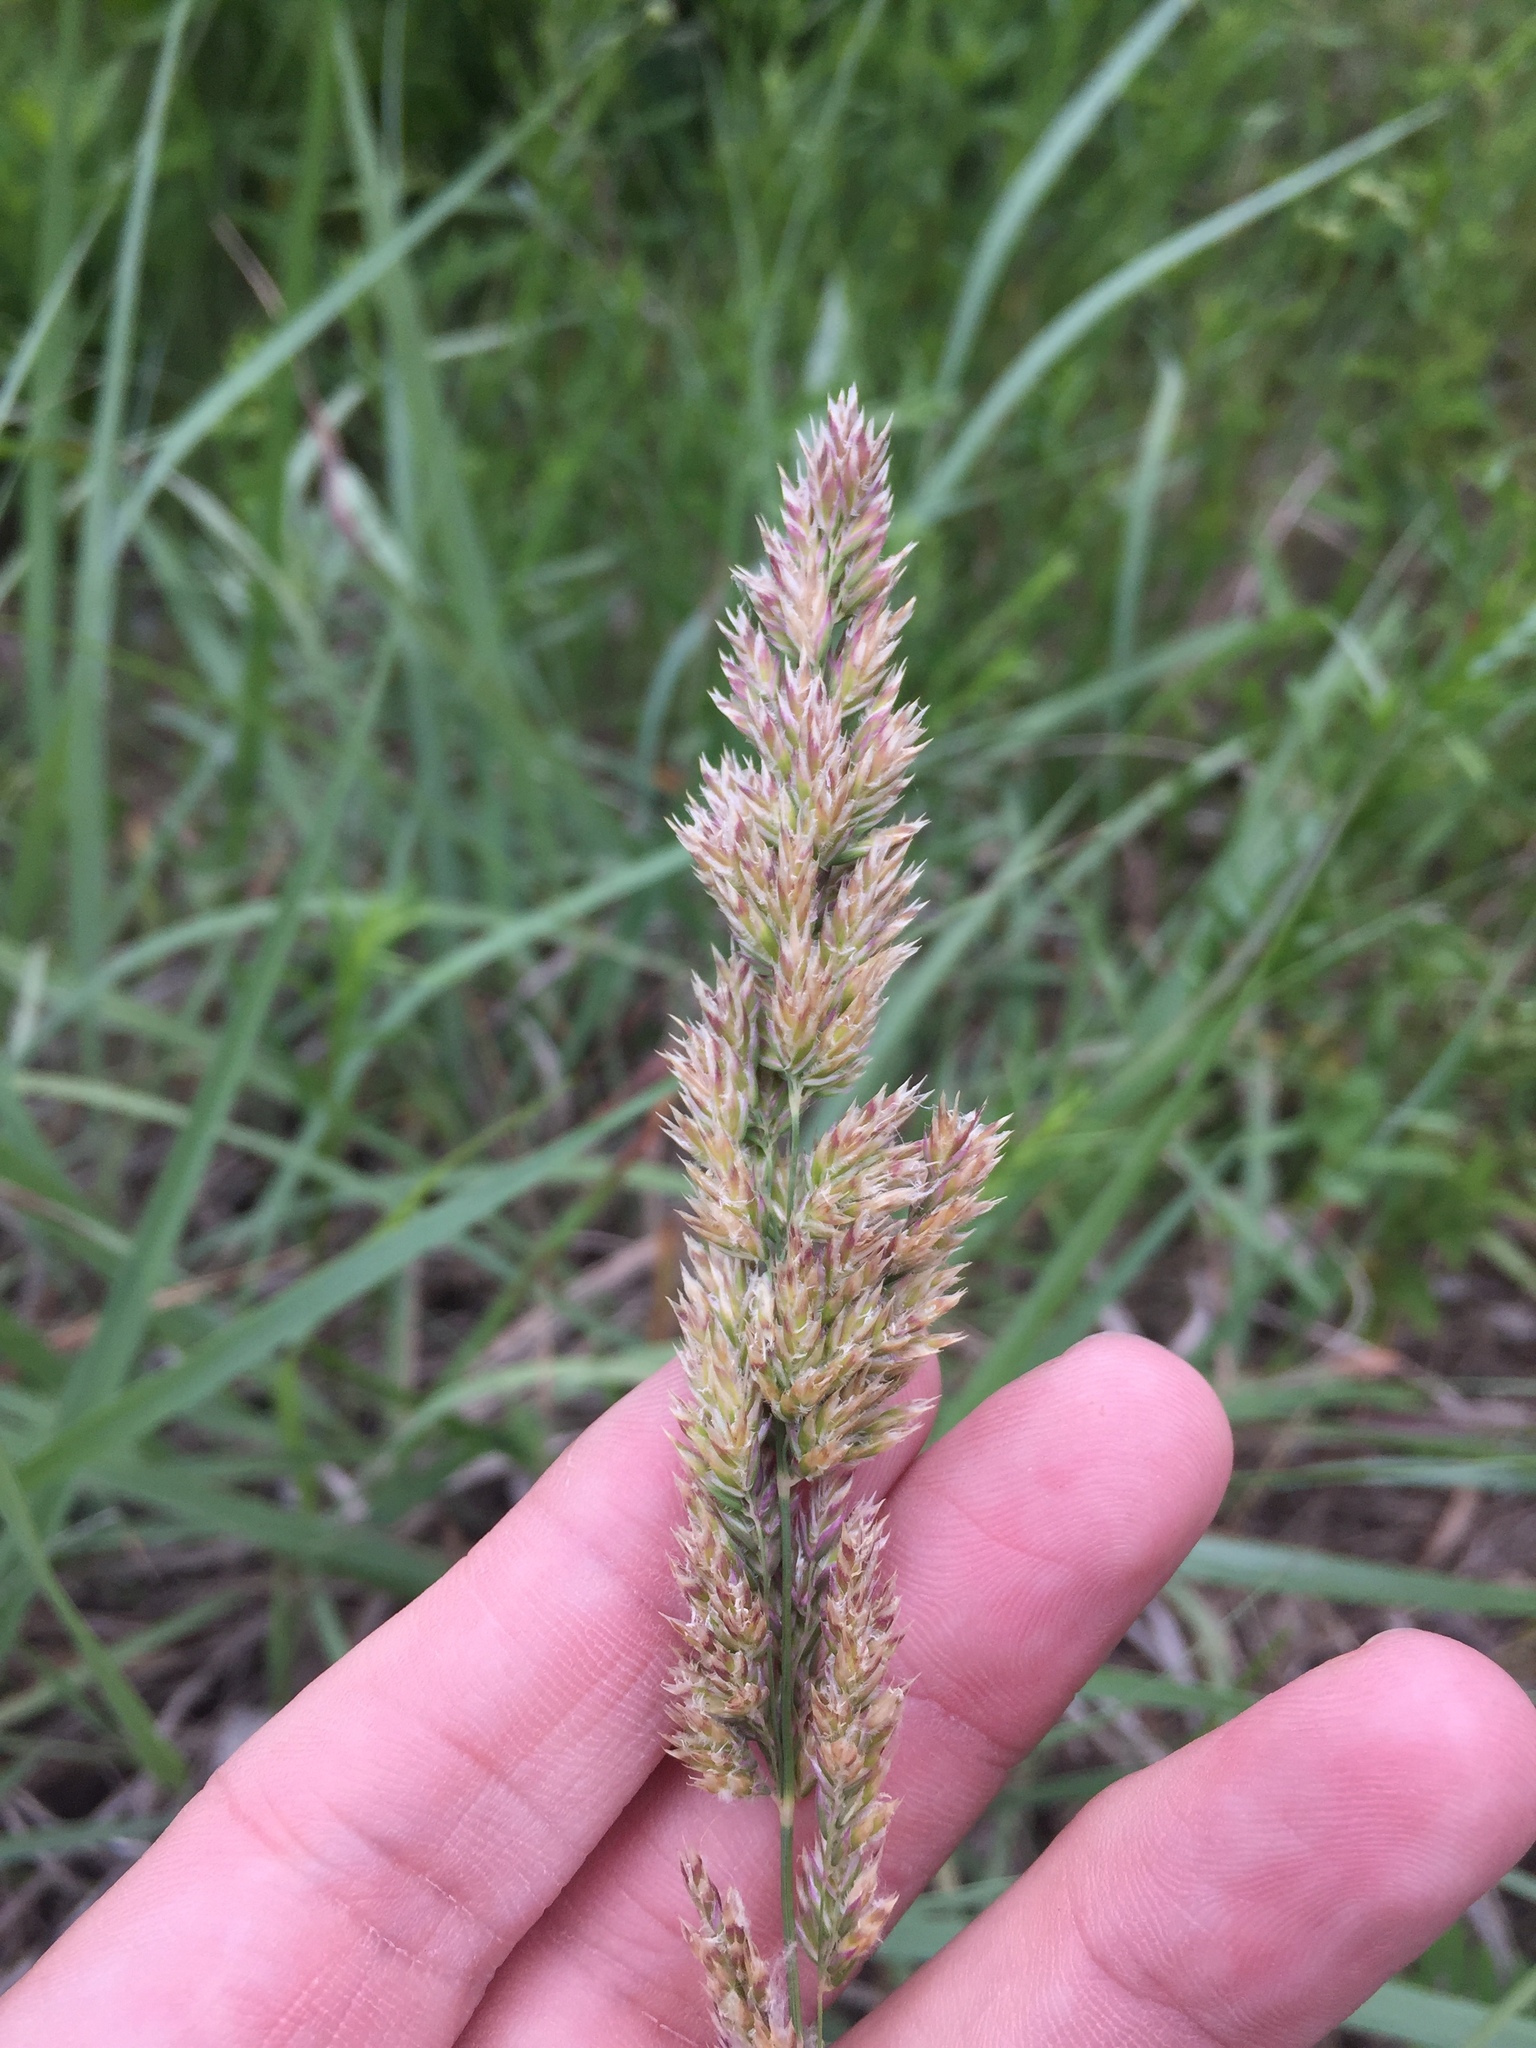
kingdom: Plantae
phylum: Tracheophyta
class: Liliopsida
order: Poales
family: Poaceae
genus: Poa
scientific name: Poa arachnifera
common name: Texas bluegrass
